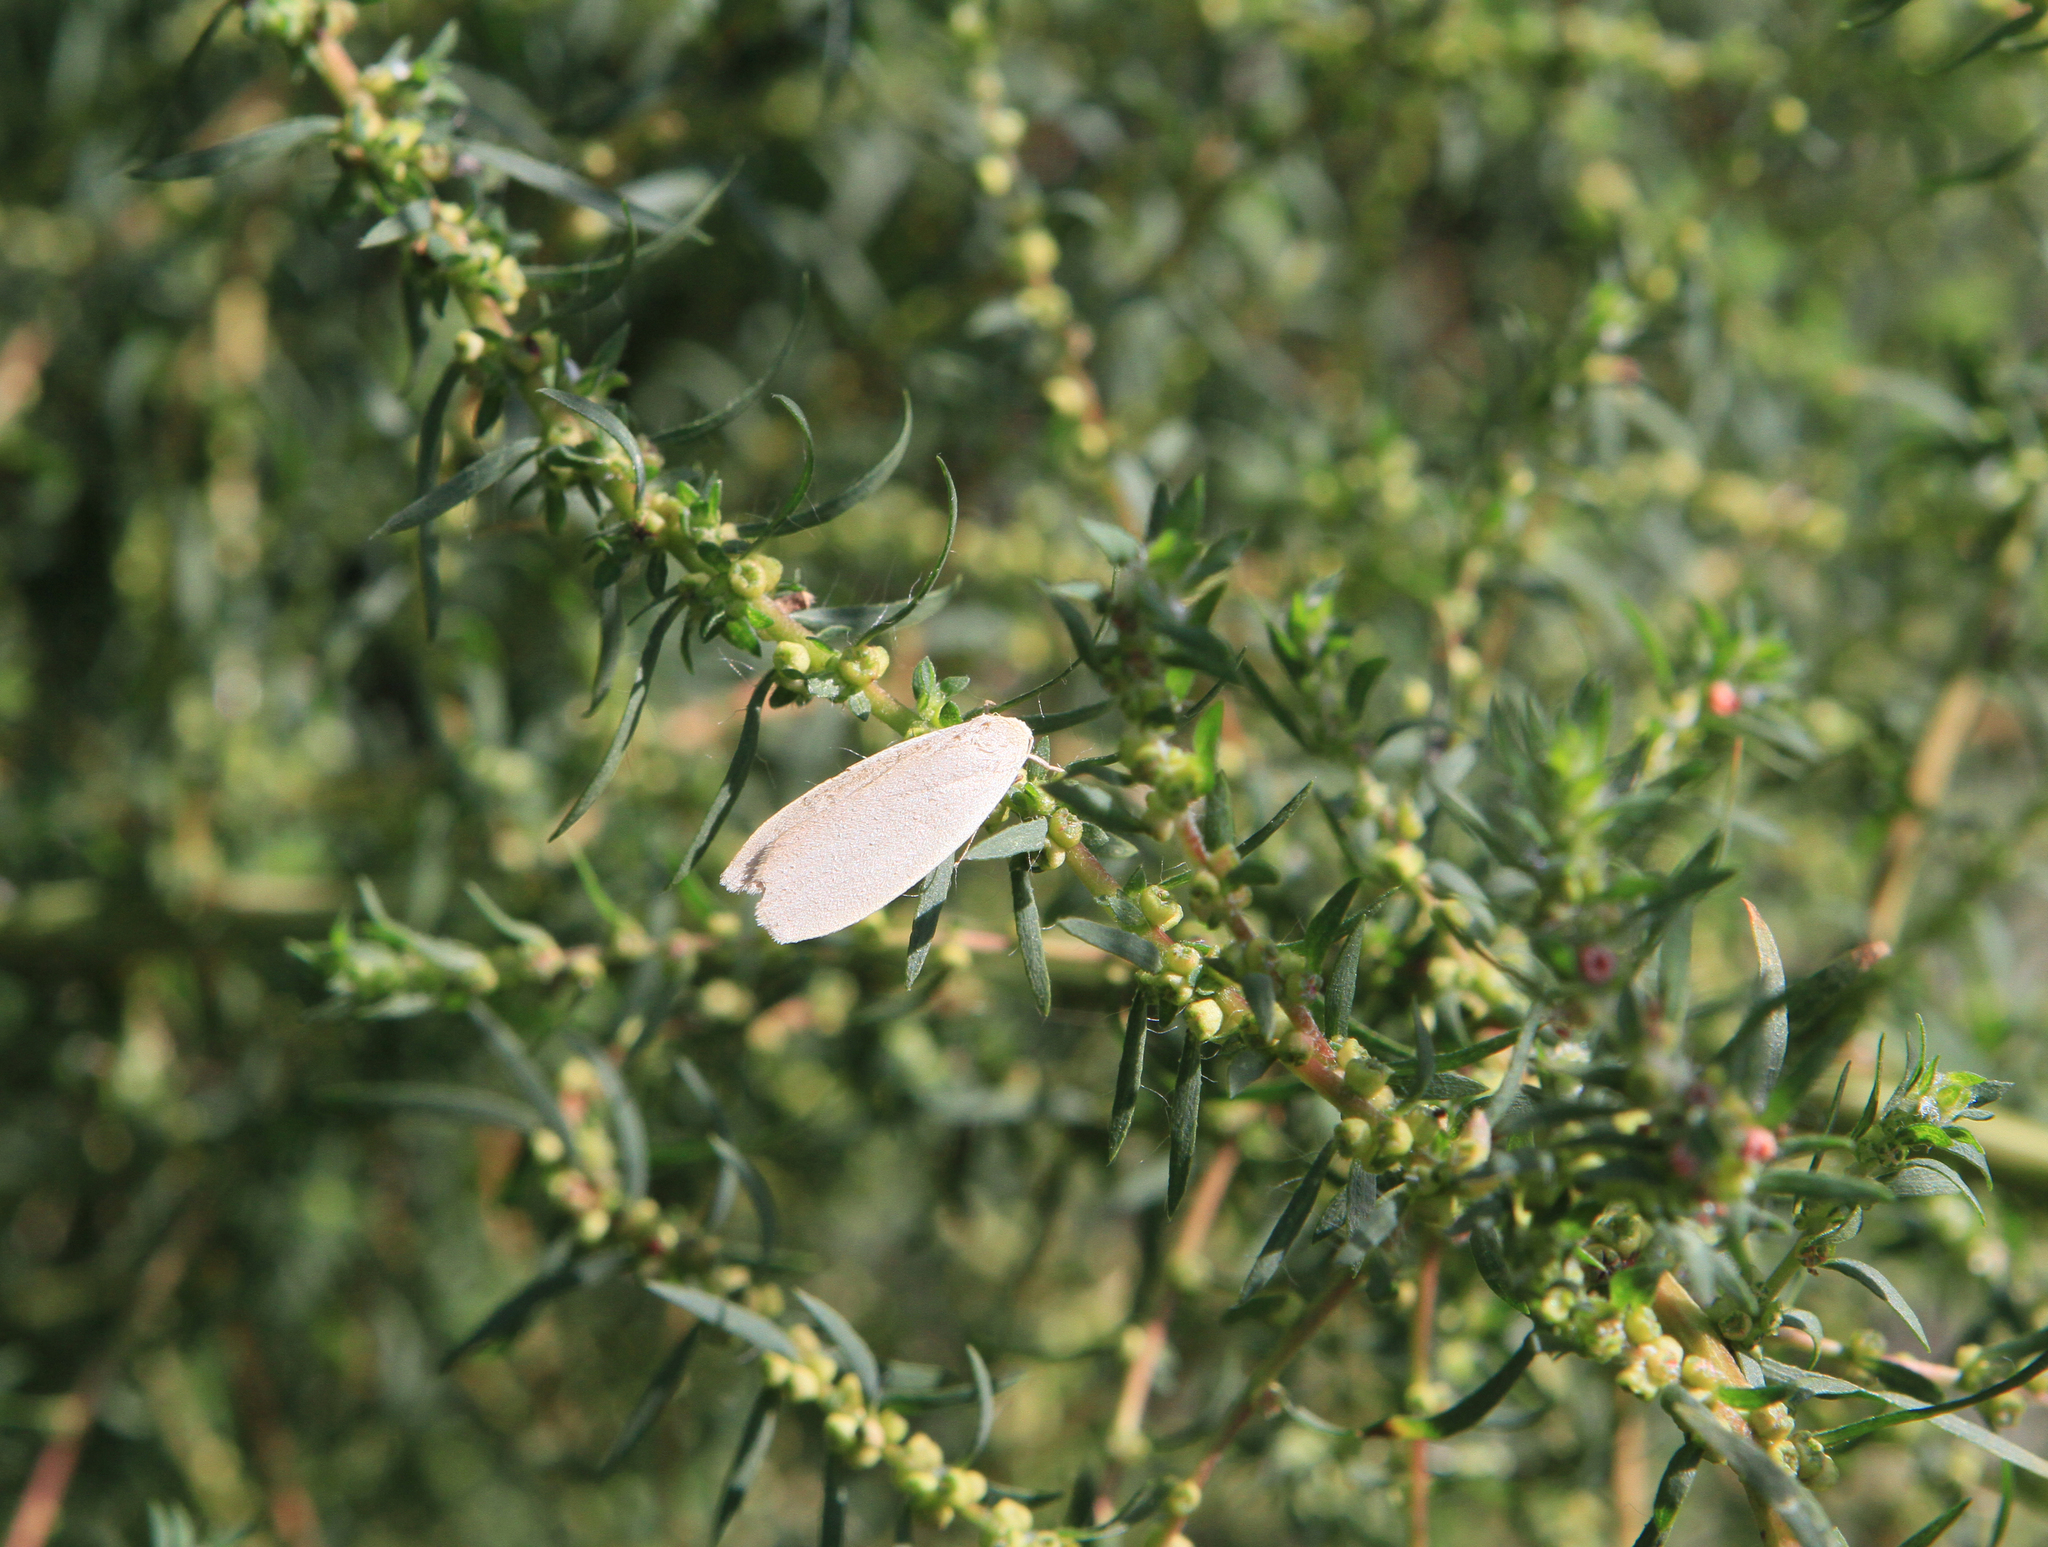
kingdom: Plantae
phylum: Tracheophyta
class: Magnoliopsida
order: Caryophyllales
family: Amaranthaceae
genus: Bassia
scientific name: Bassia scoparia
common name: Belvedere
